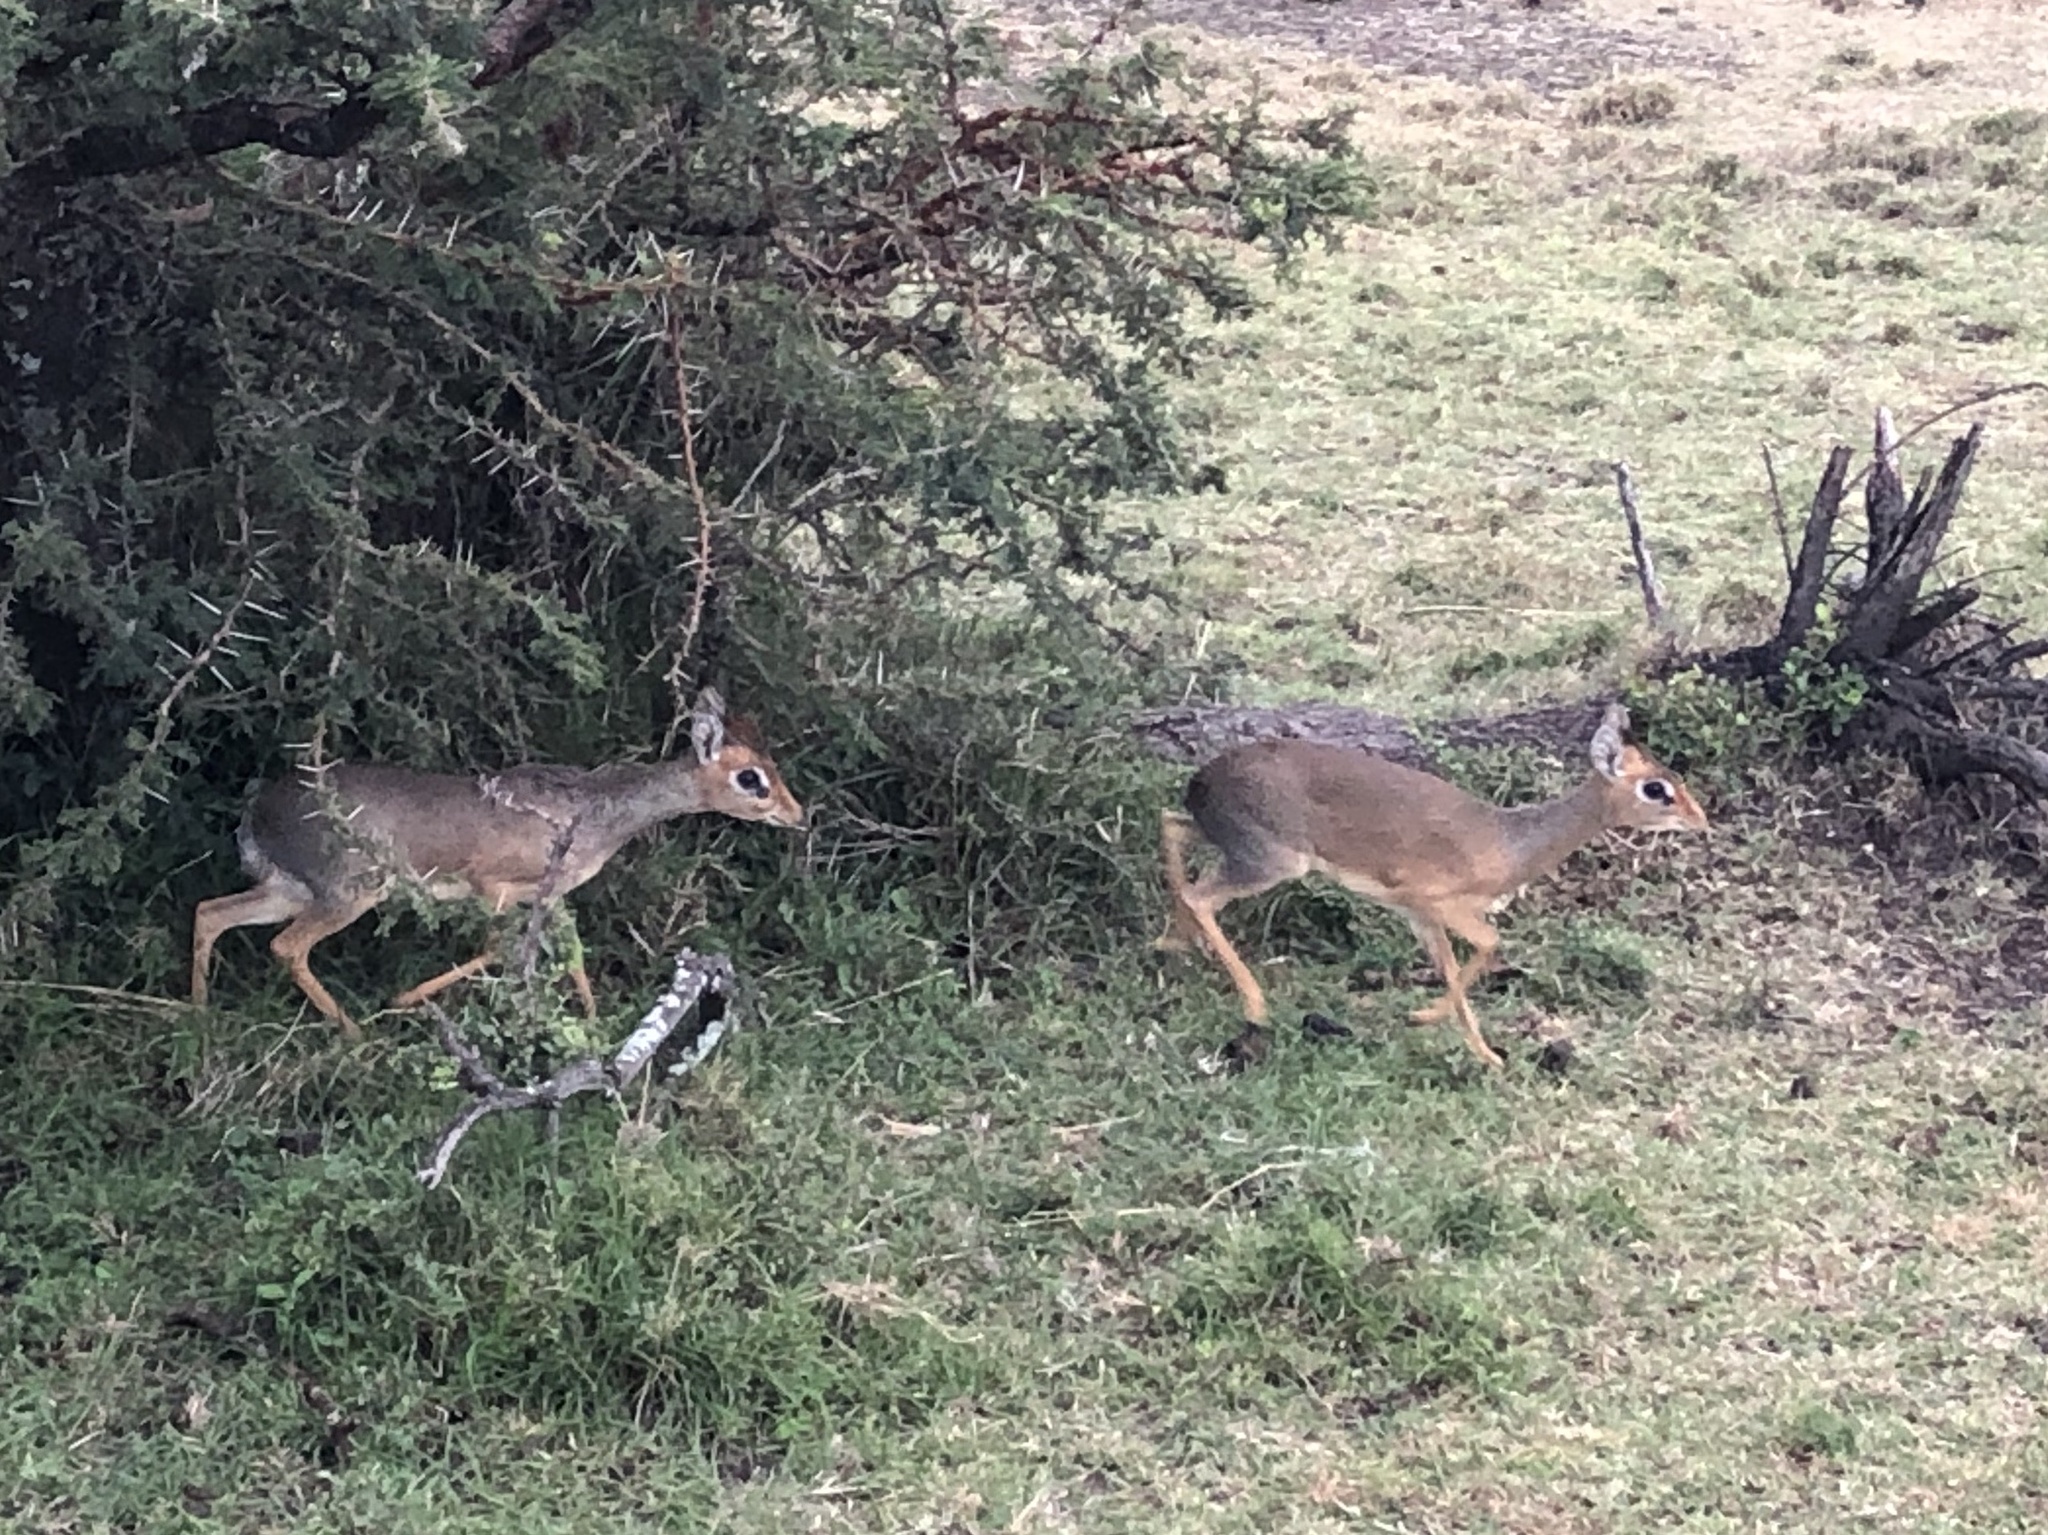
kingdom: Animalia
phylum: Chordata
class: Mammalia
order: Artiodactyla
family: Bovidae
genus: Madoqua
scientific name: Madoqua
